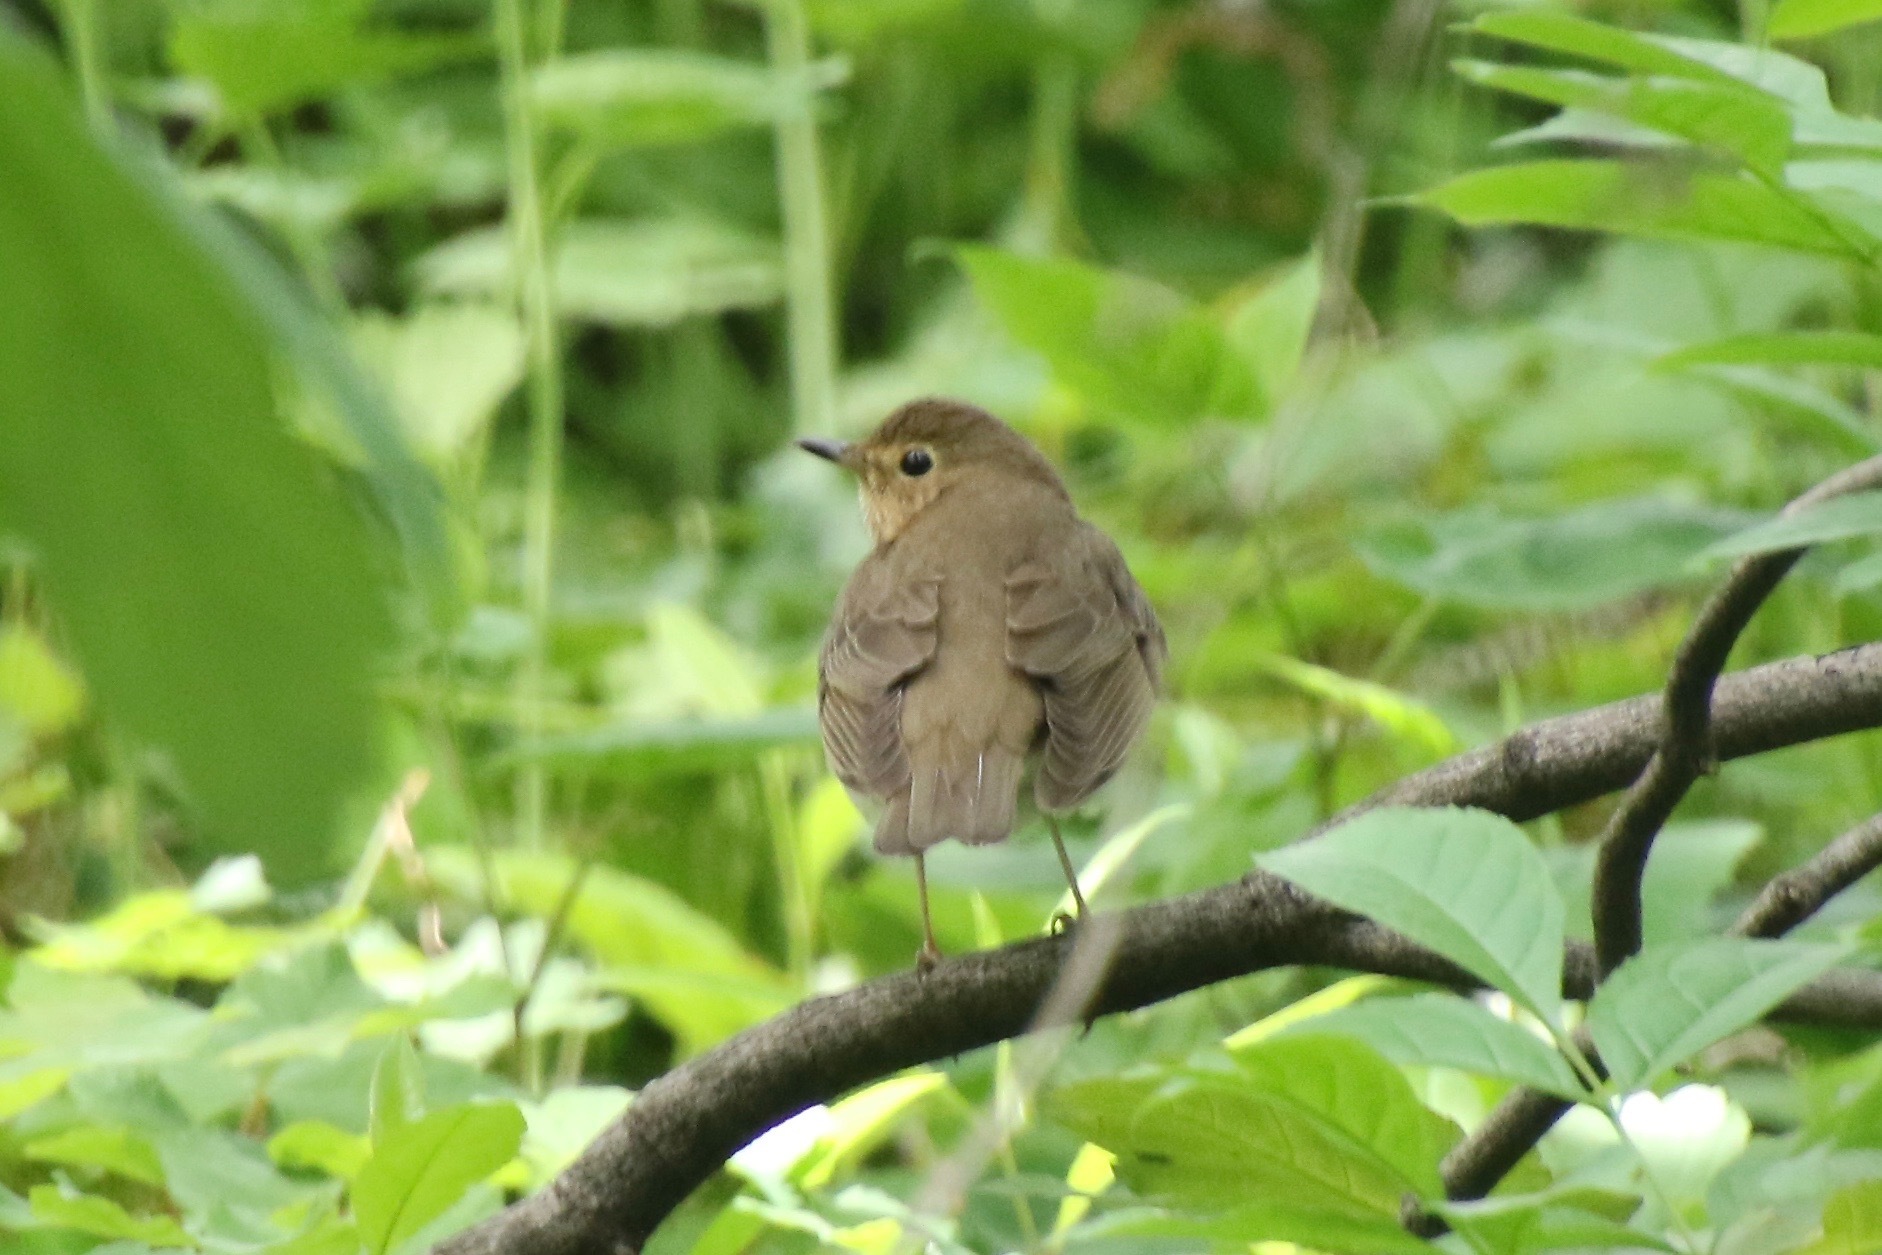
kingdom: Animalia
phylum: Chordata
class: Aves
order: Passeriformes
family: Turdidae
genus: Catharus
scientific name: Catharus ustulatus
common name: Swainson's thrush
